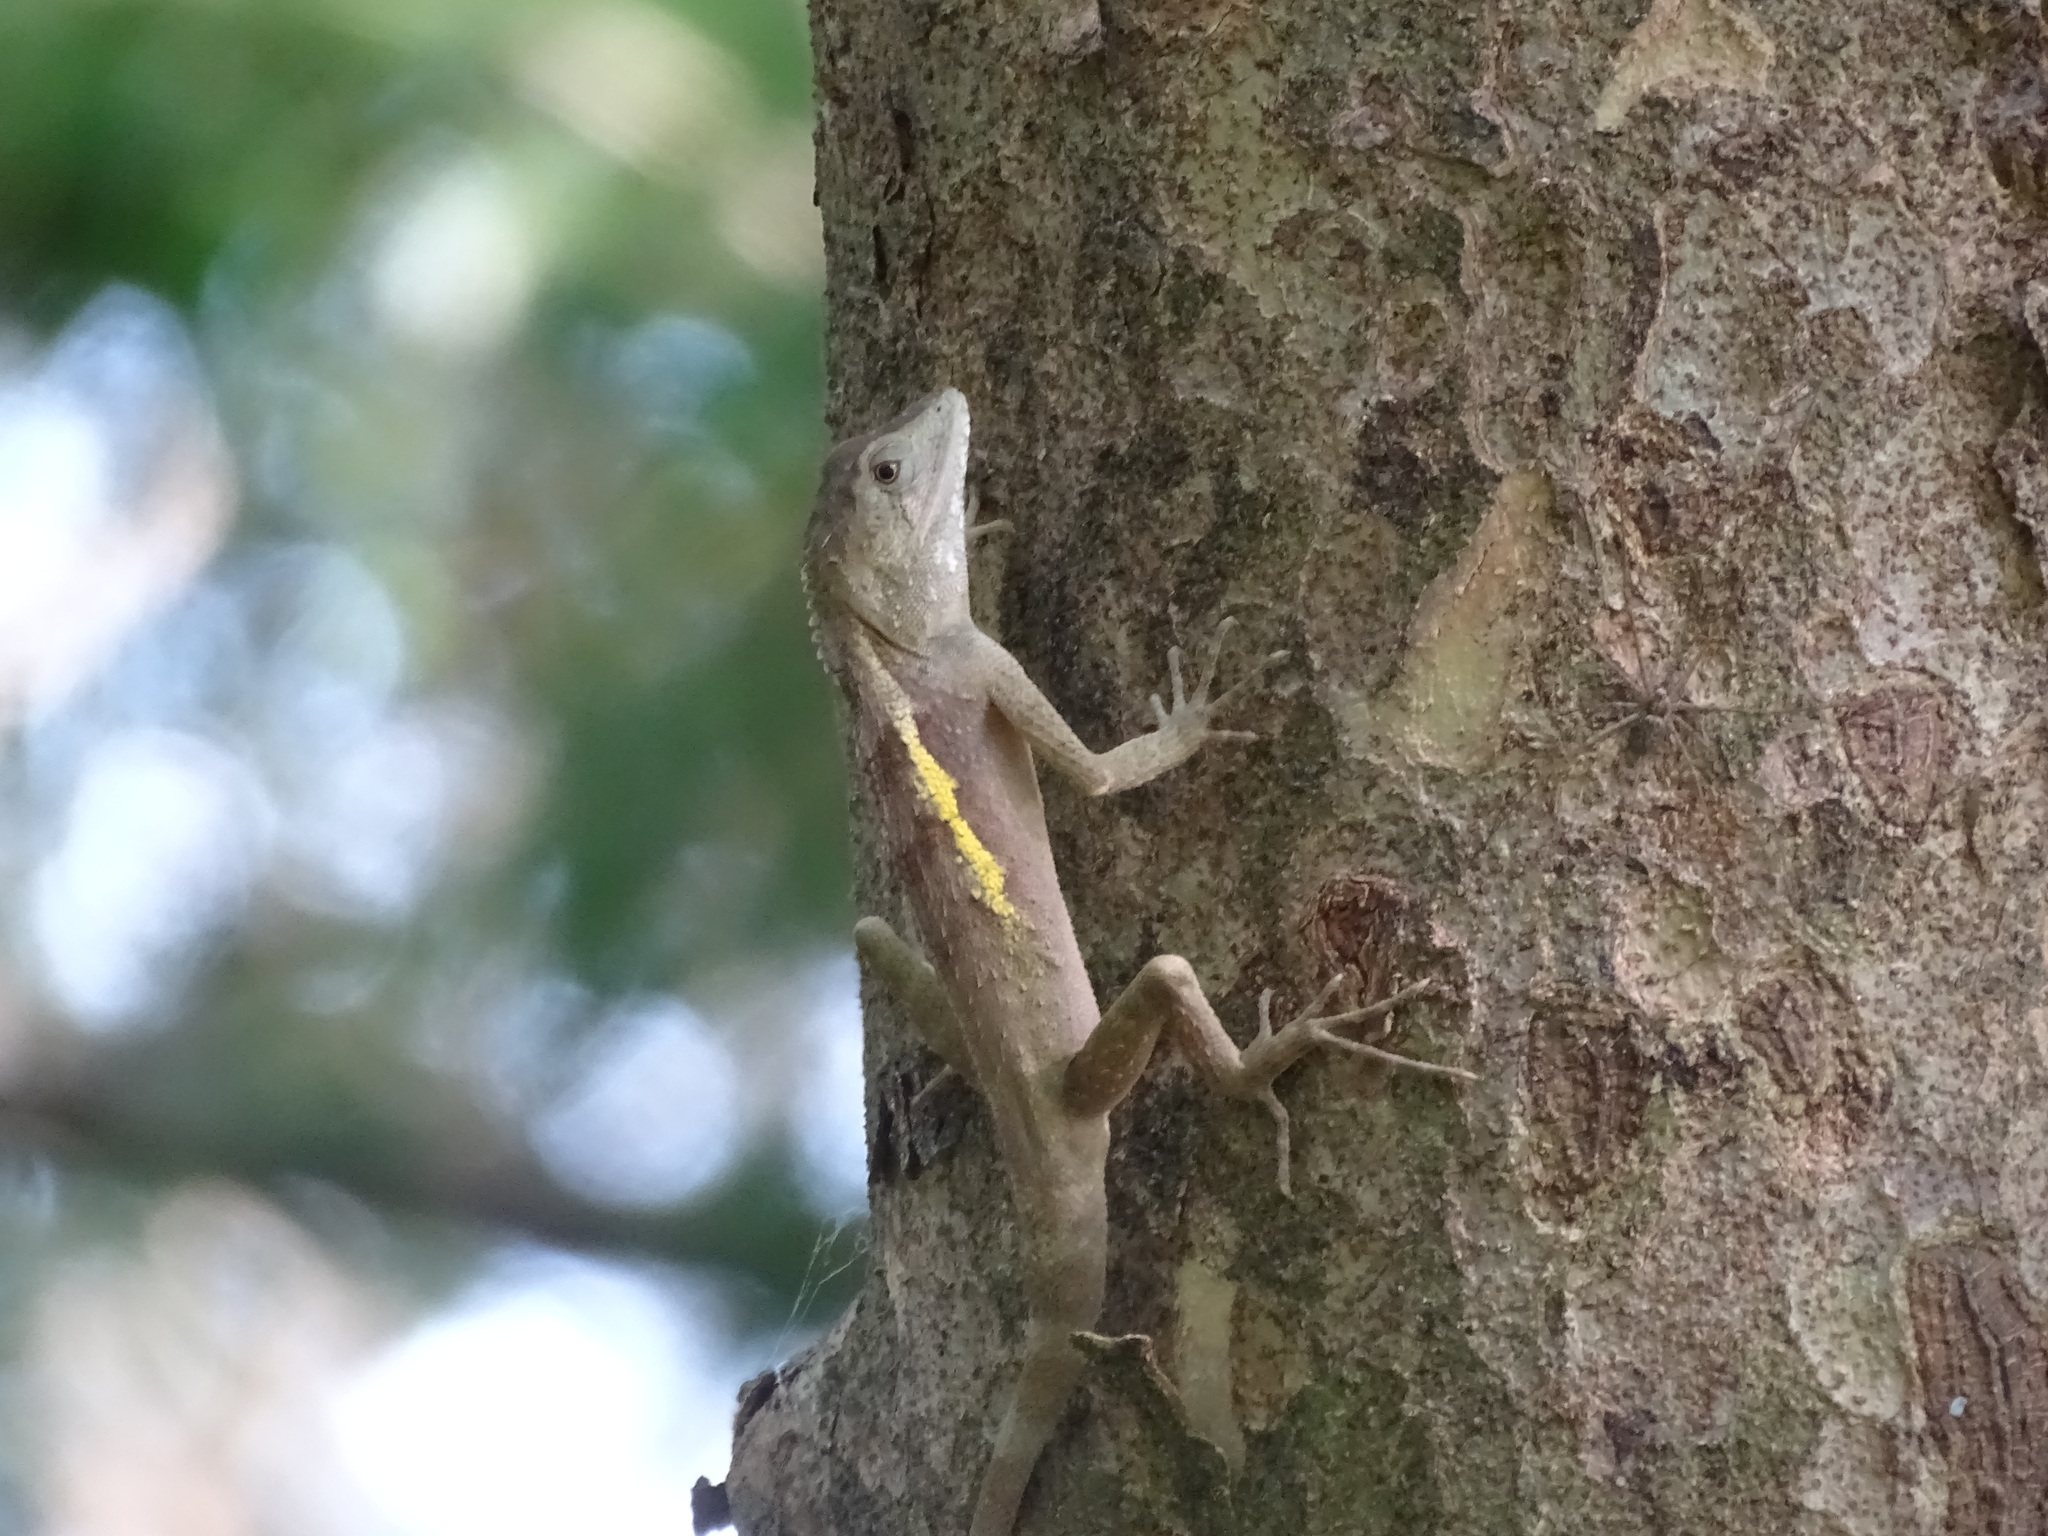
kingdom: Animalia
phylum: Chordata
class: Squamata
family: Agamidae
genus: Diploderma
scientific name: Diploderma swinhonis
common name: Taiwan japalure
